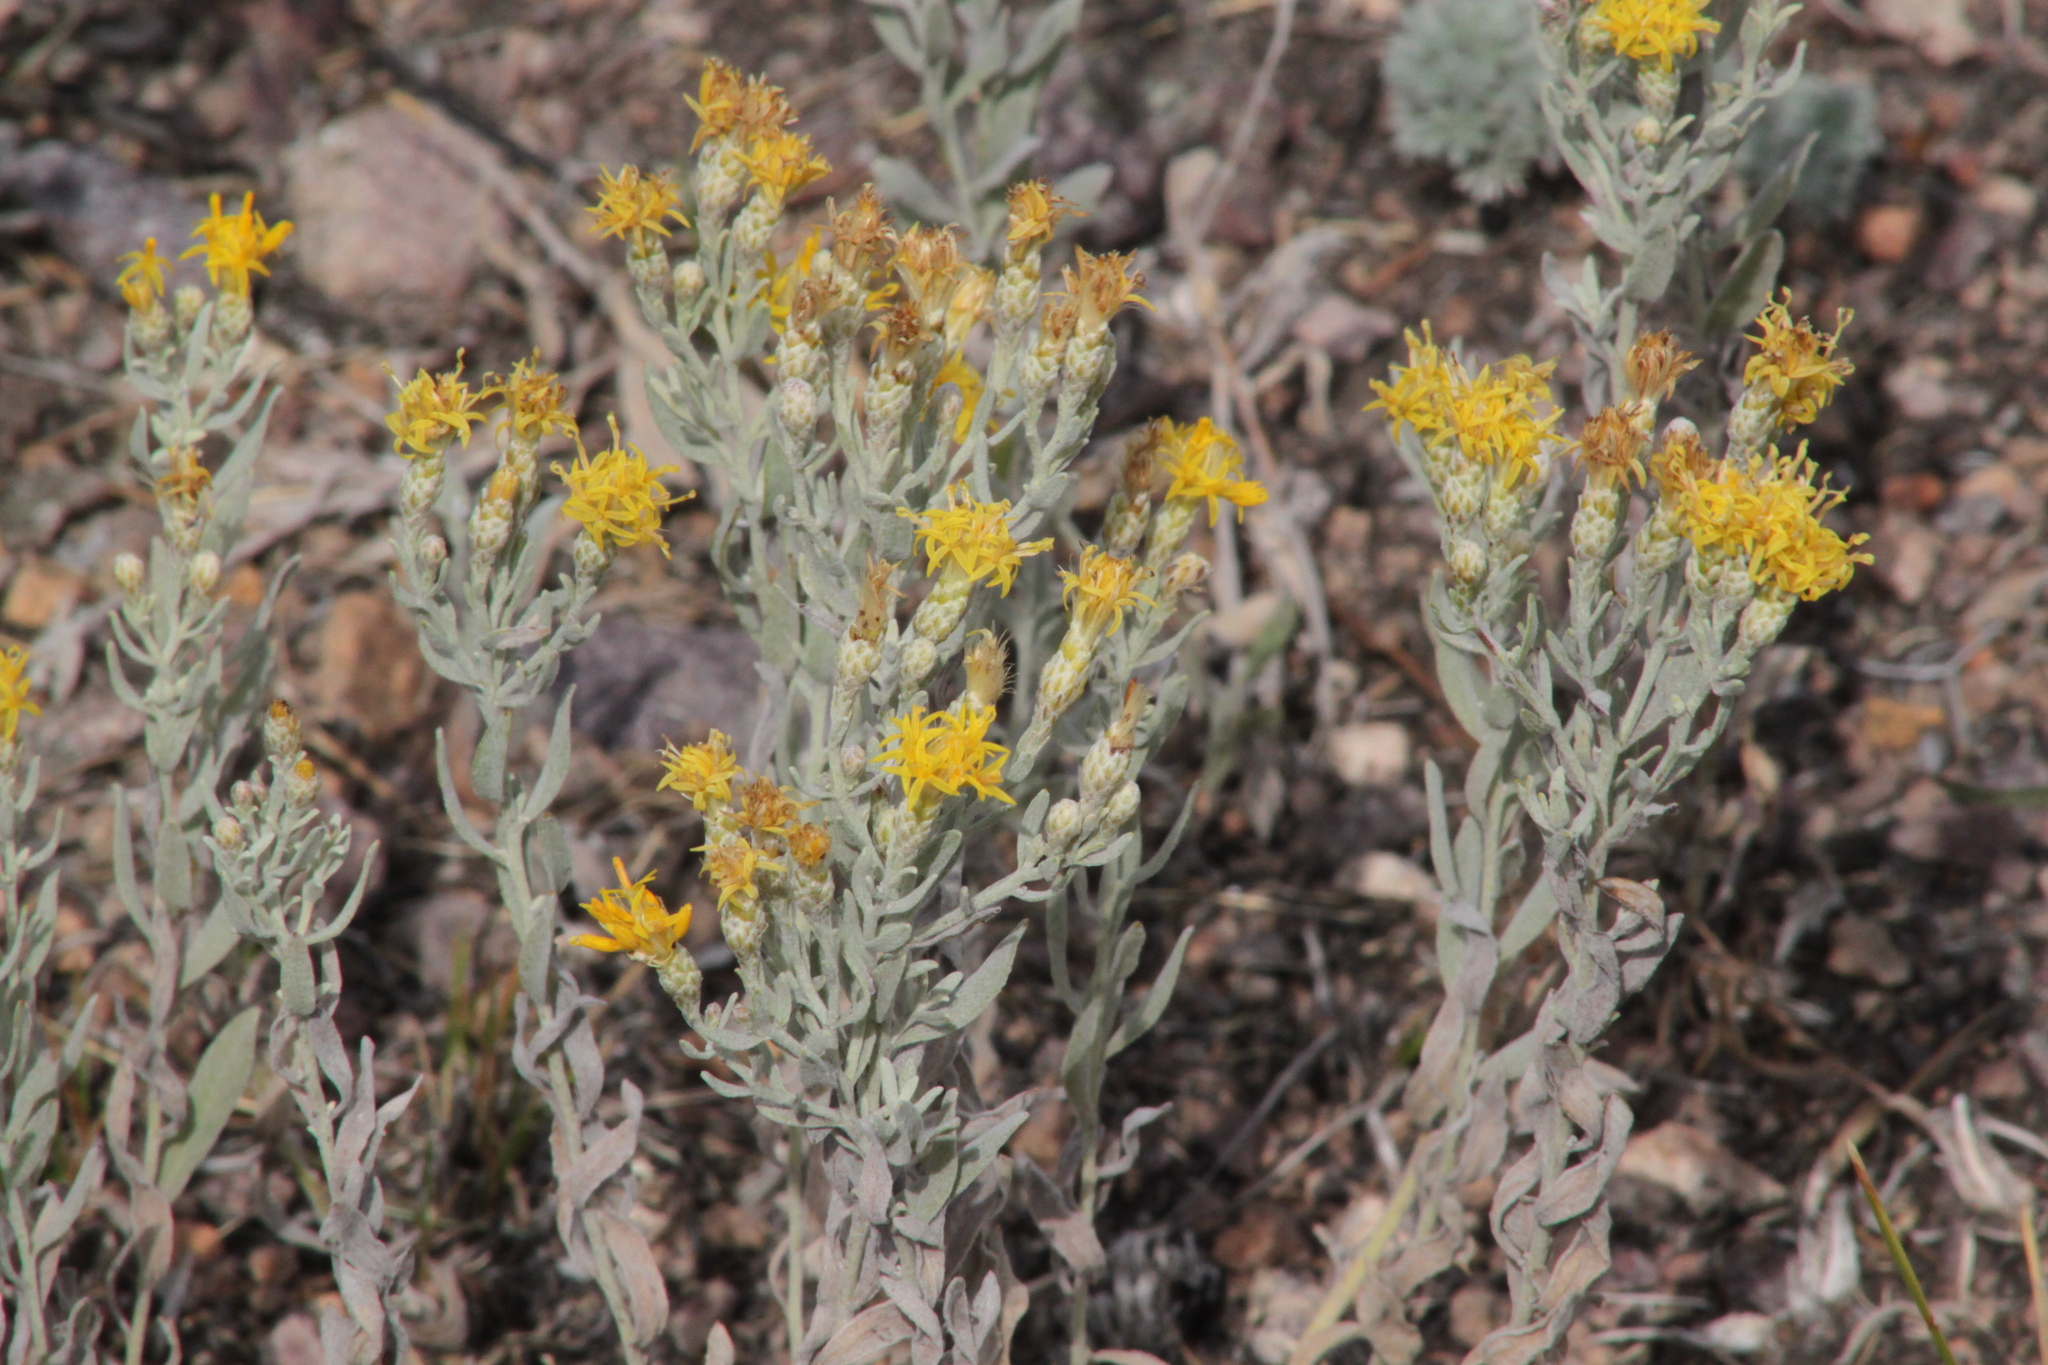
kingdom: Plantae
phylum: Tracheophyta
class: Magnoliopsida
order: Asterales
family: Asteraceae
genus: Galatella
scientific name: Galatella villosa
